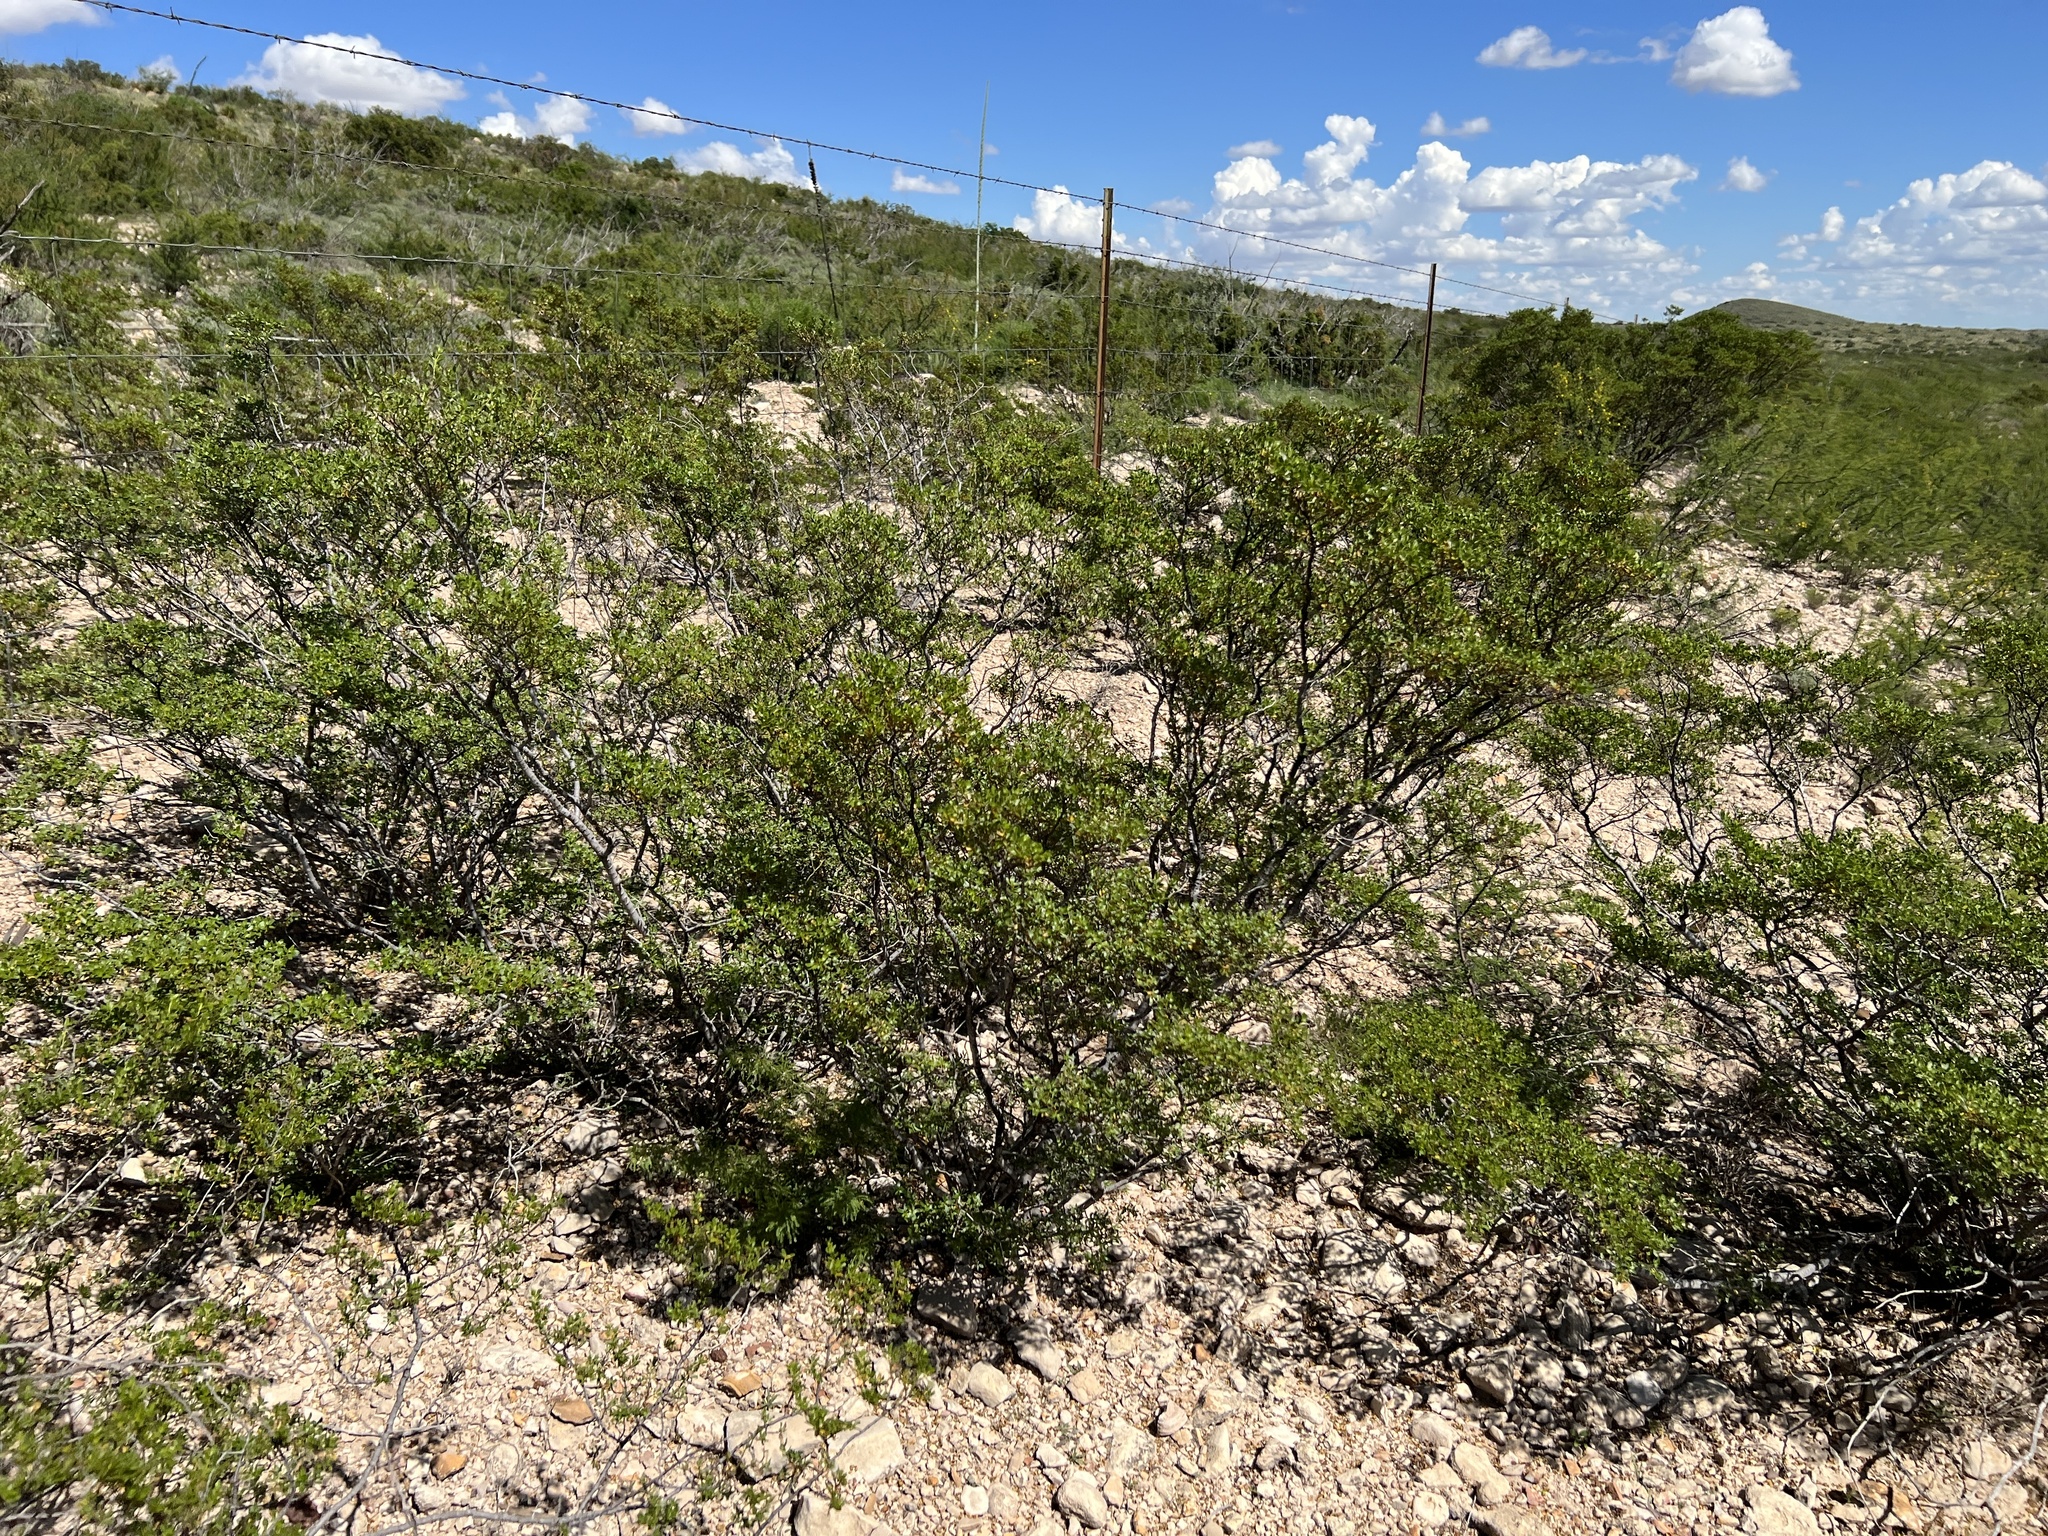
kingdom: Plantae
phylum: Tracheophyta
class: Magnoliopsida
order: Zygophyllales
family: Zygophyllaceae
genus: Larrea
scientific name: Larrea tridentata
